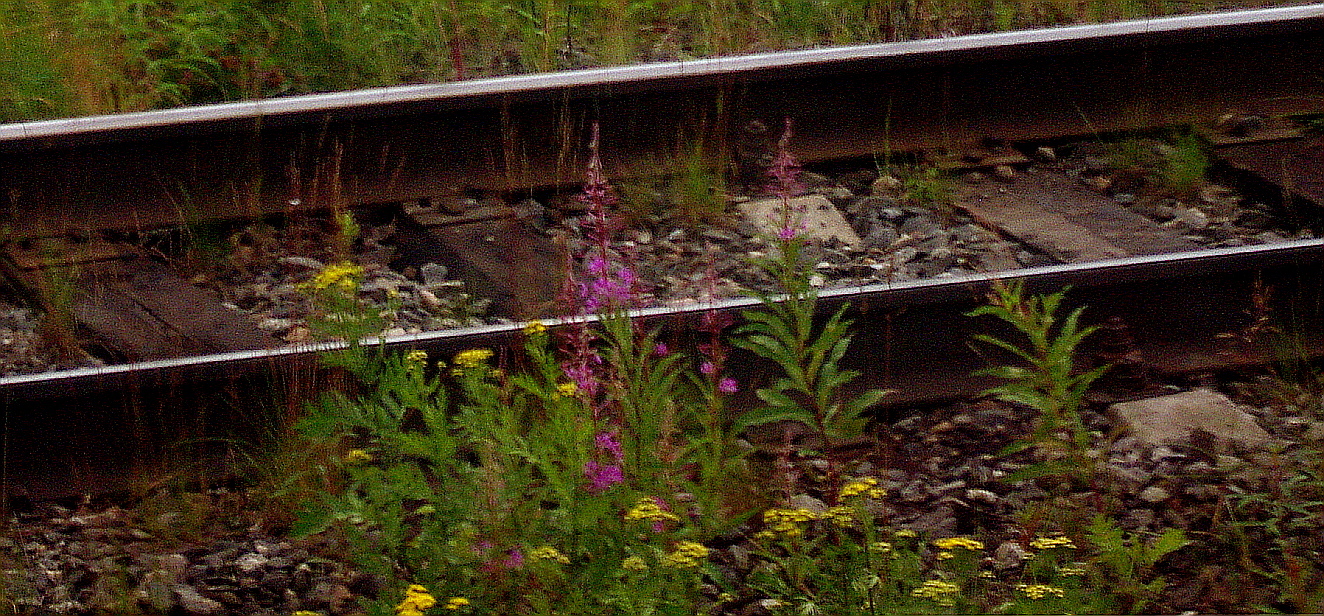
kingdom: Plantae
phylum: Tracheophyta
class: Magnoliopsida
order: Asterales
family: Asteraceae
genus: Tanacetum
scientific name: Tanacetum vulgare
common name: Common tansy
